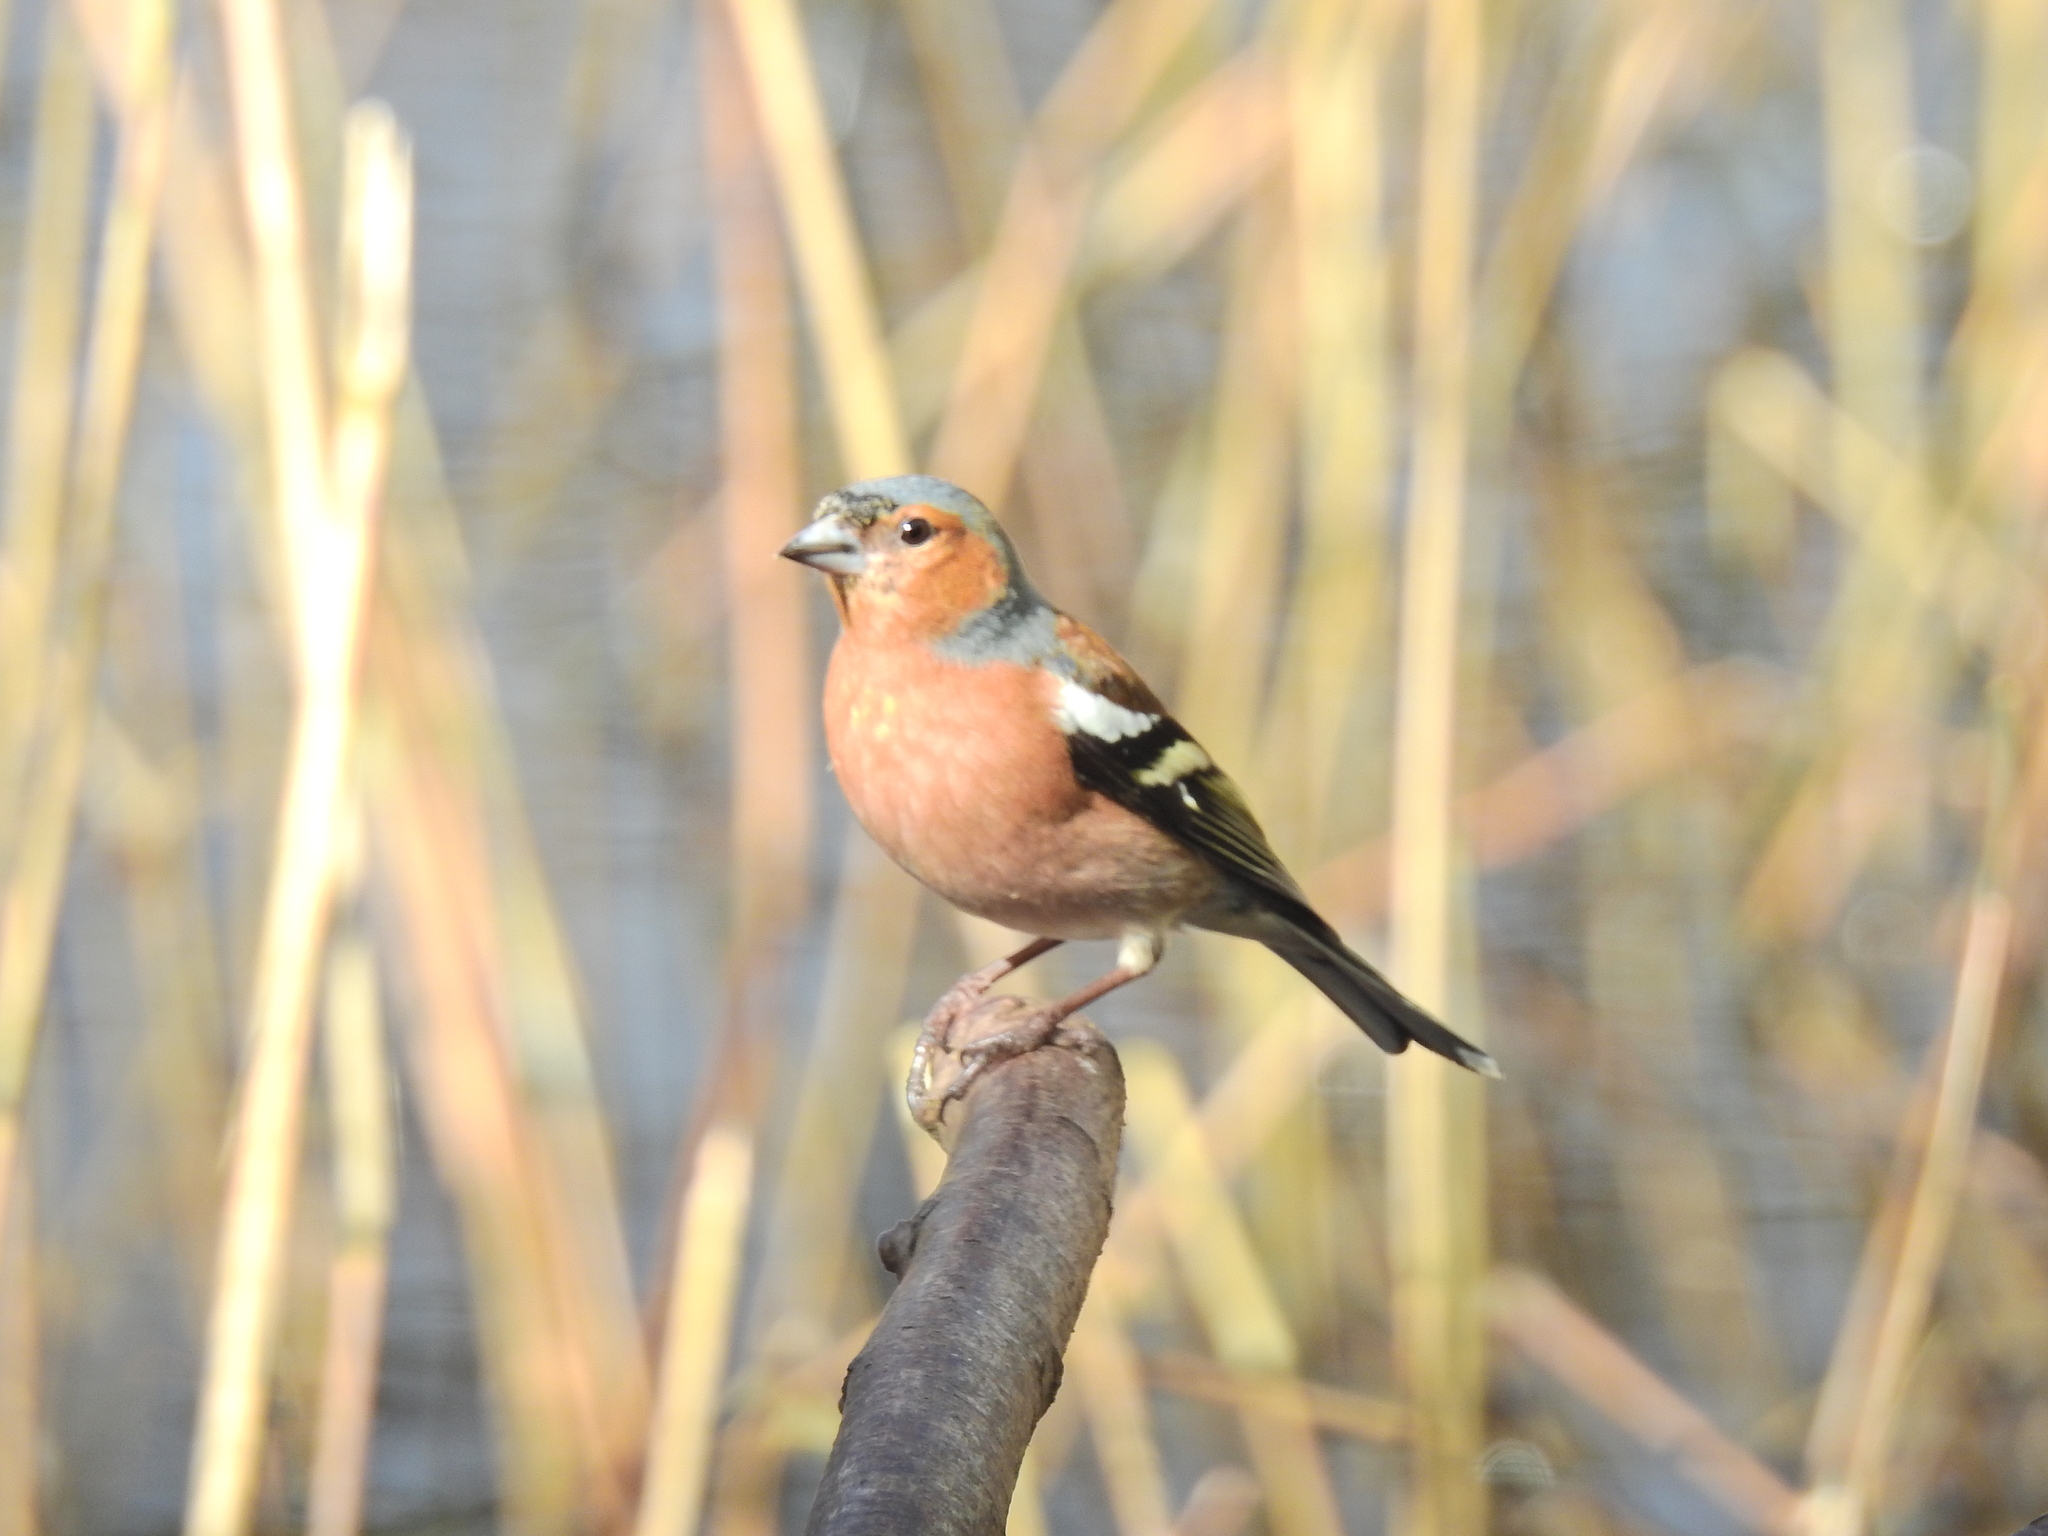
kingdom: Animalia
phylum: Chordata
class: Aves
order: Passeriformes
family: Fringillidae
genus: Fringilla
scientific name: Fringilla coelebs
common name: Common chaffinch
